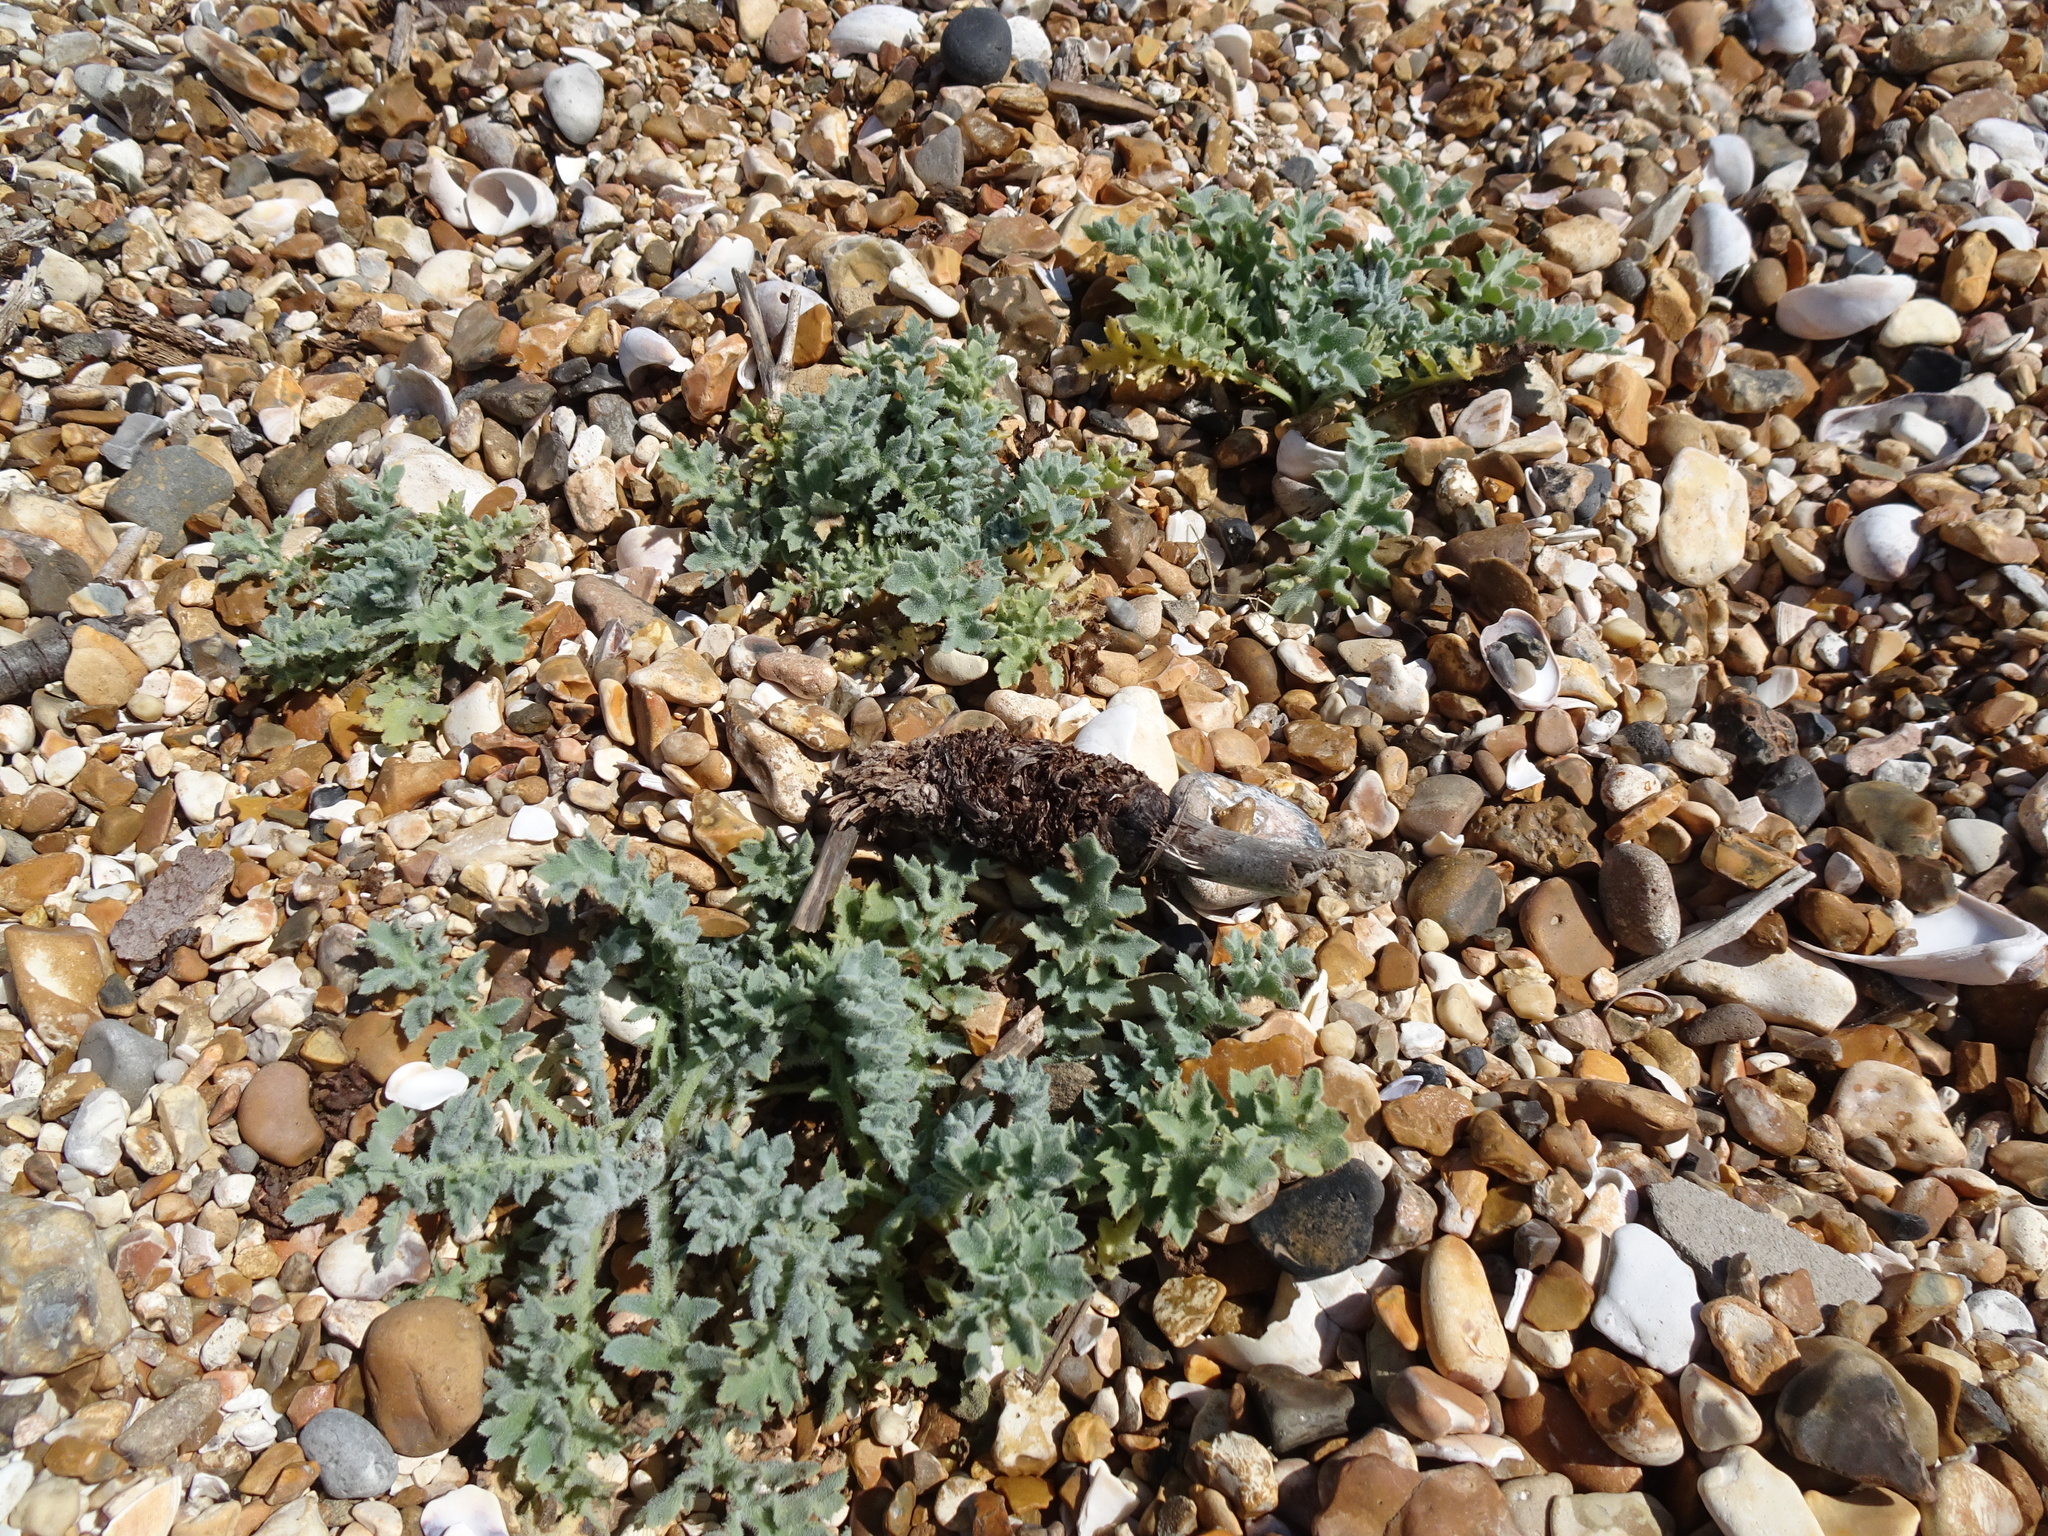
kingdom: Plantae
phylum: Tracheophyta
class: Magnoliopsida
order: Ranunculales
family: Papaveraceae
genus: Glaucium
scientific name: Glaucium flavum
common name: Yellow horned-poppy
